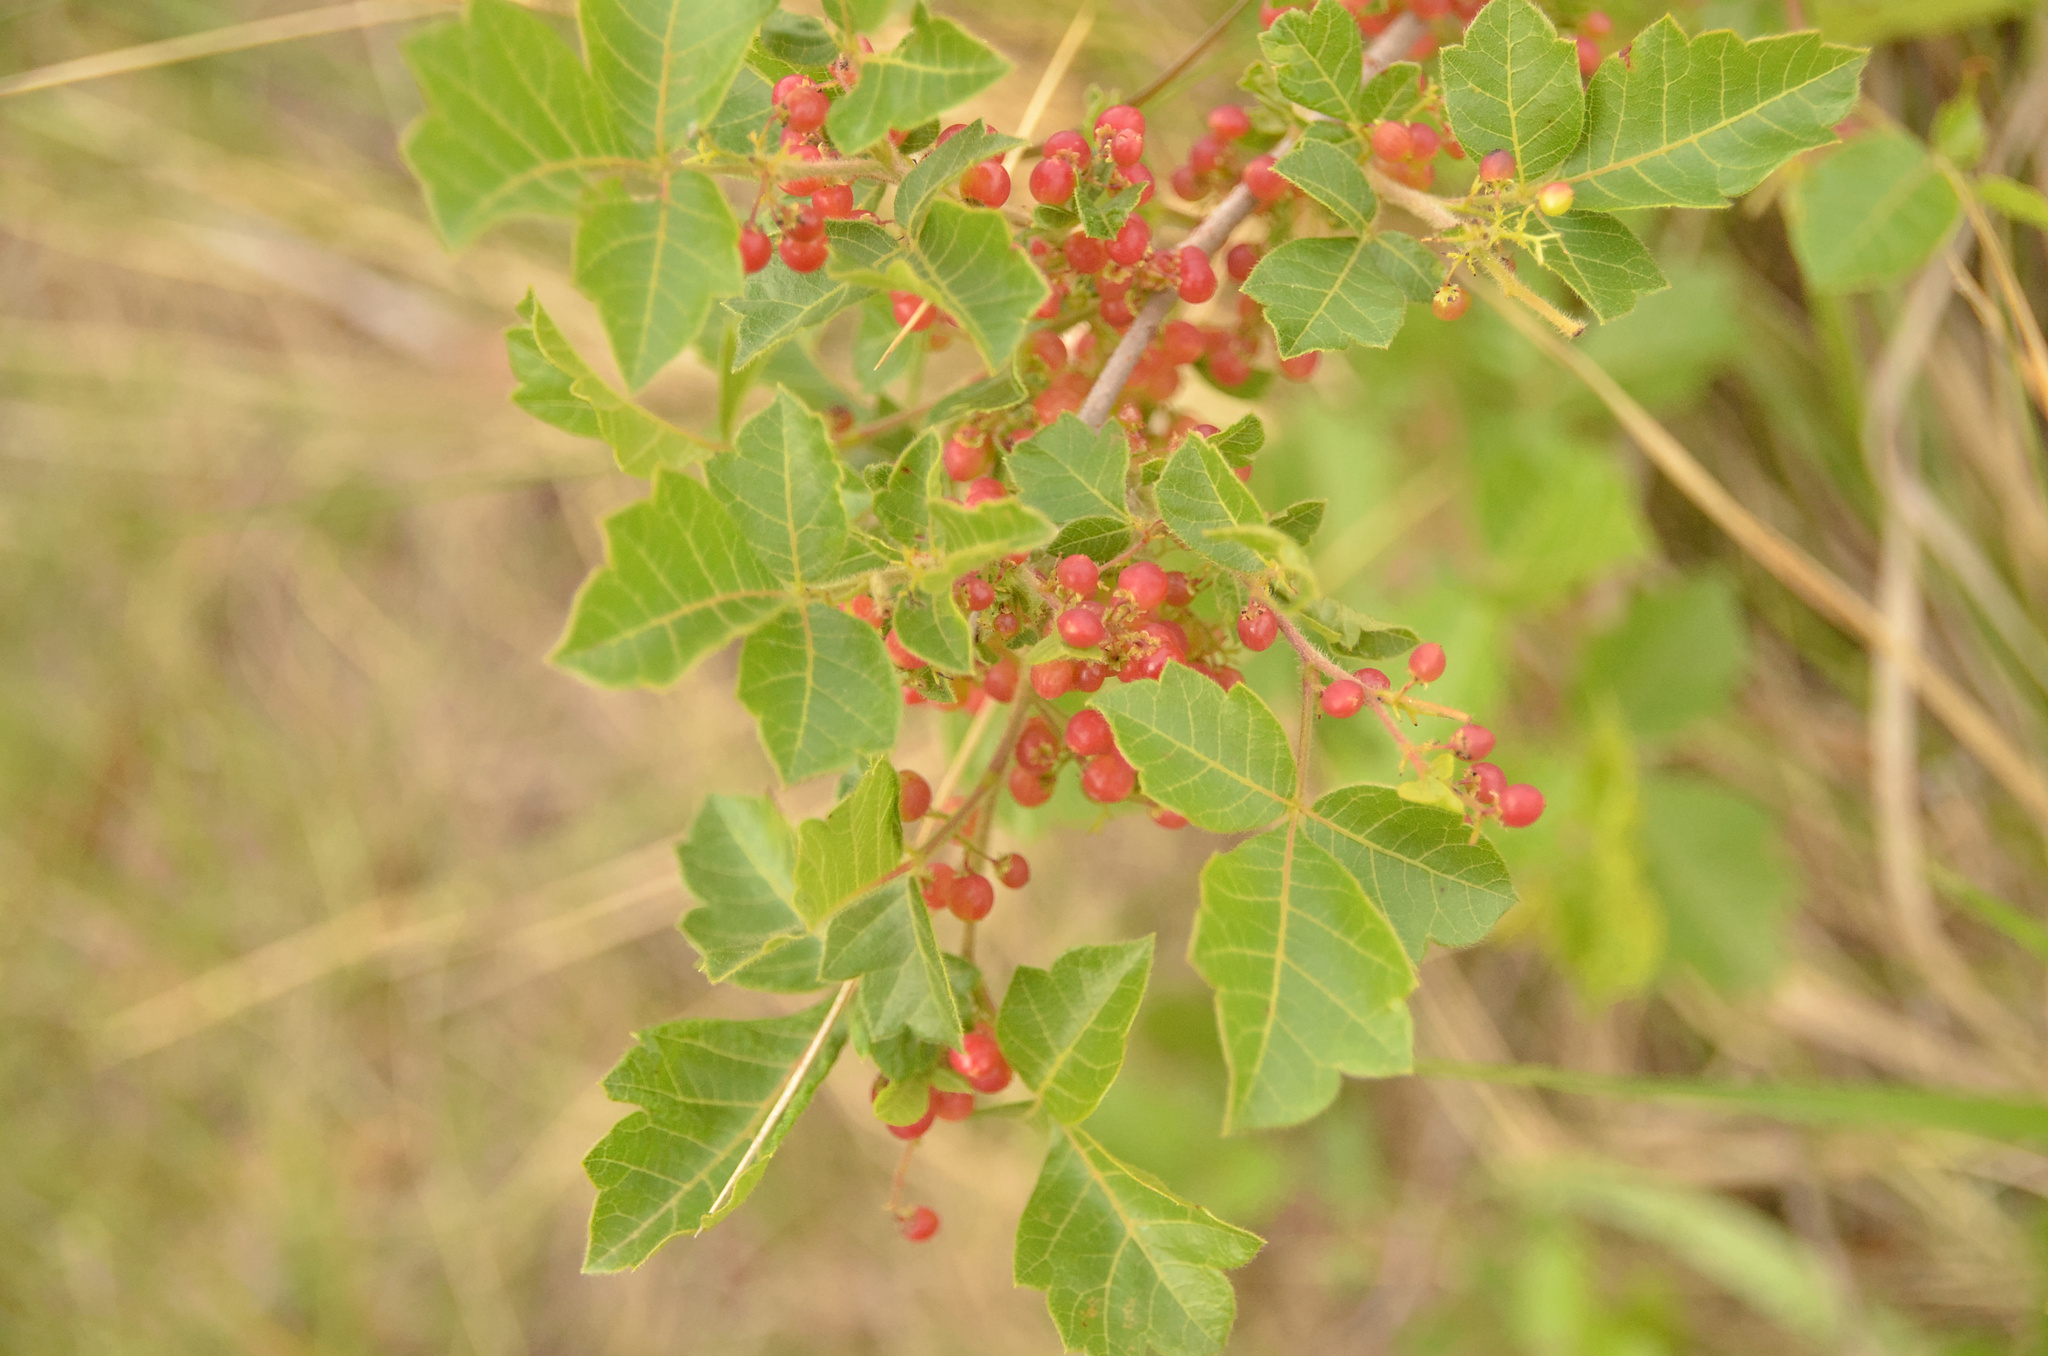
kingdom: Plantae
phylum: Tracheophyta
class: Magnoliopsida
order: Sapindales
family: Anacardiaceae
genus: Searsia
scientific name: Searsia dentata
